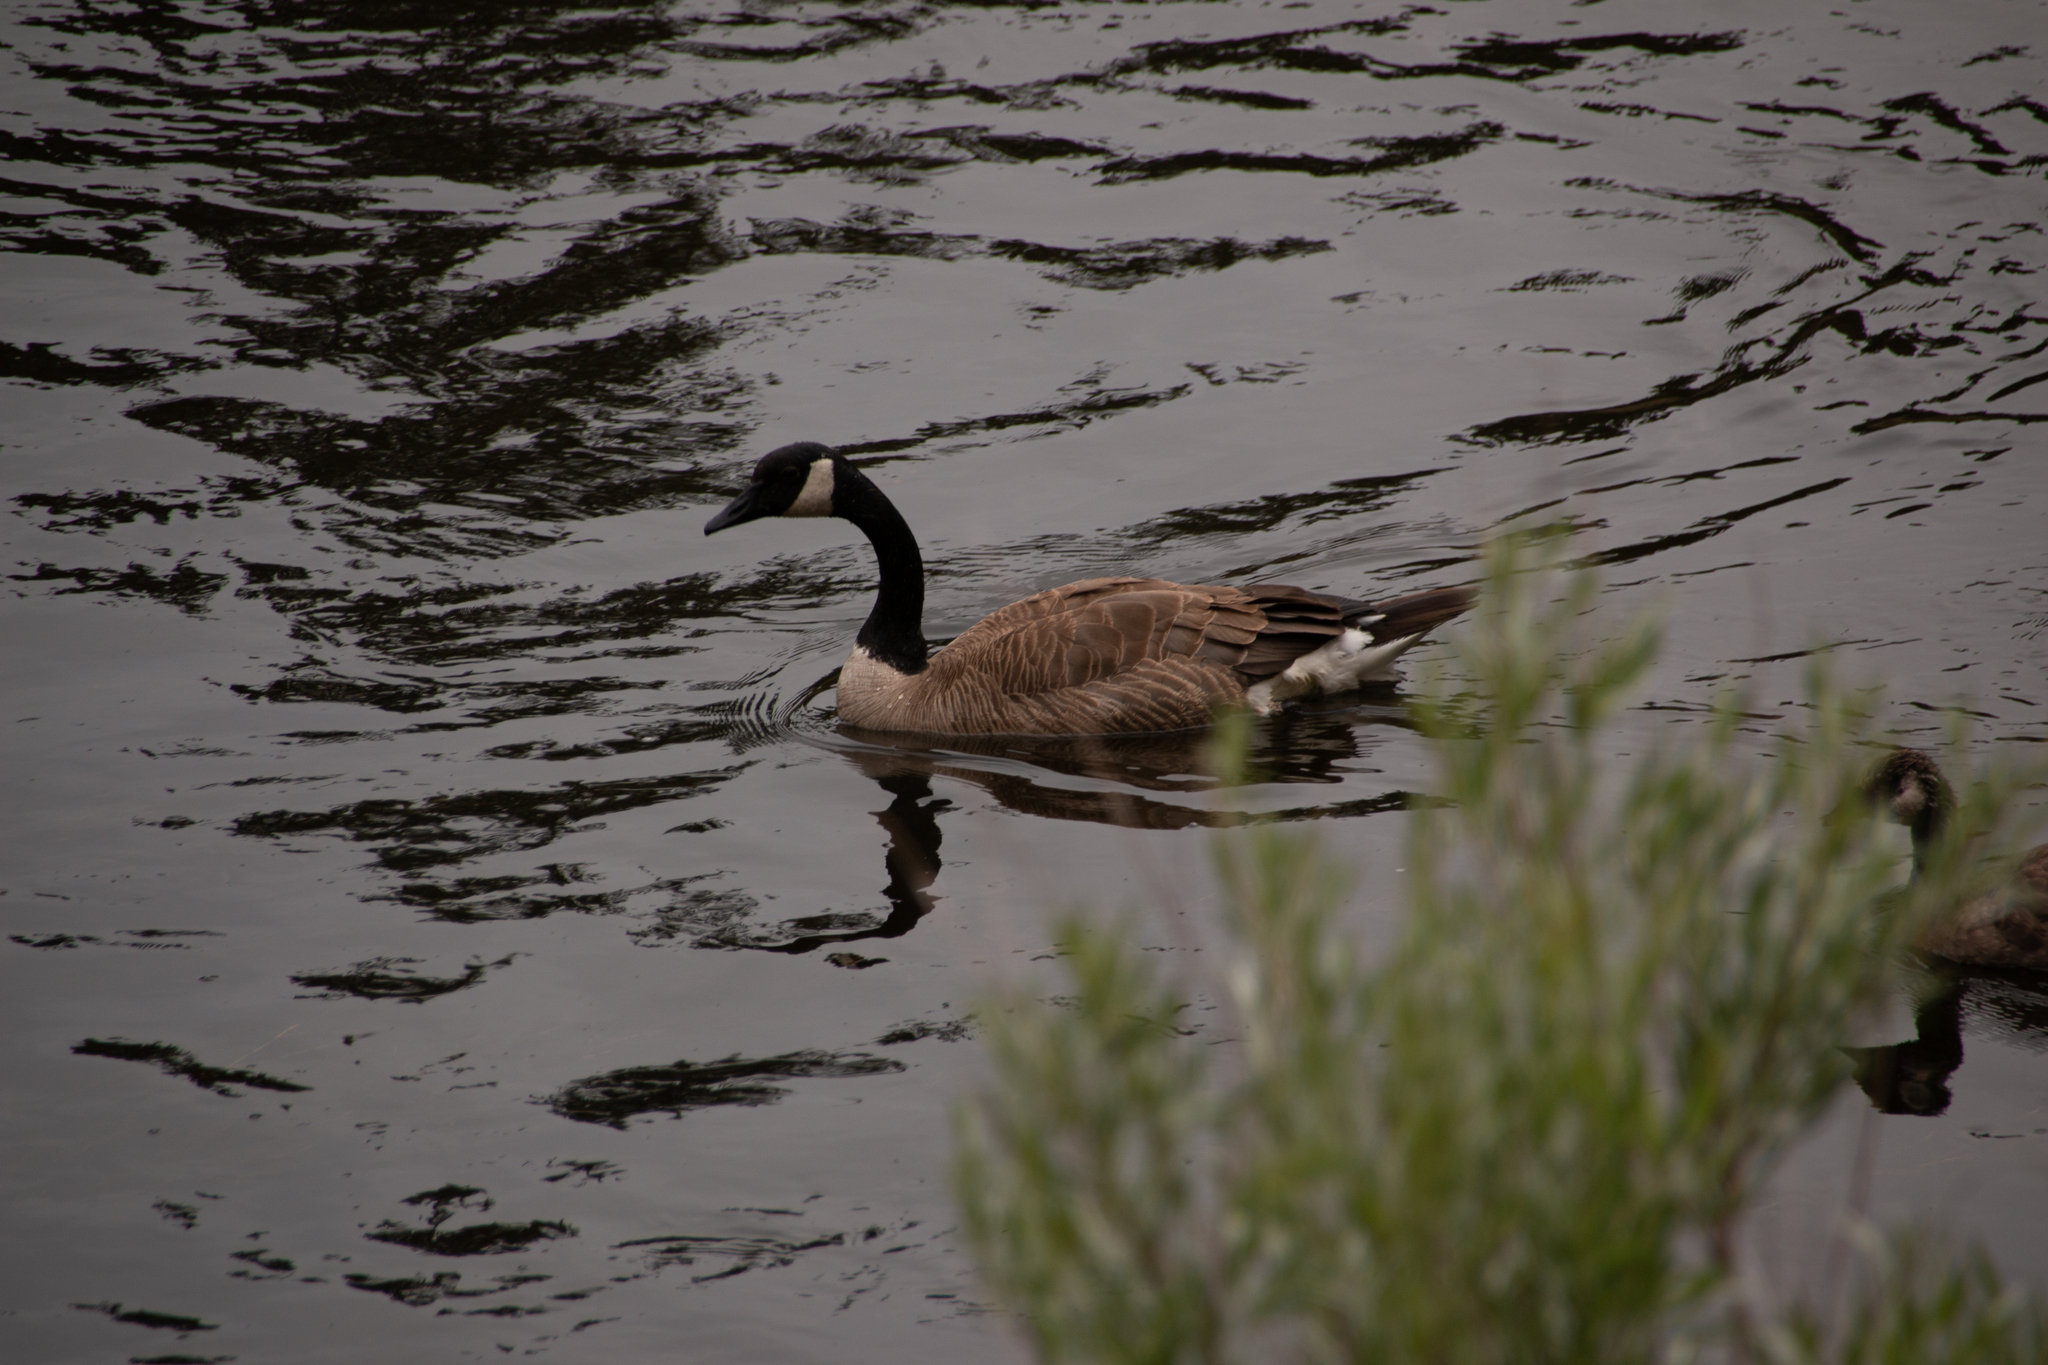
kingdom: Animalia
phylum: Chordata
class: Aves
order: Anseriformes
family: Anatidae
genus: Branta
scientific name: Branta canadensis
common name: Canada goose
